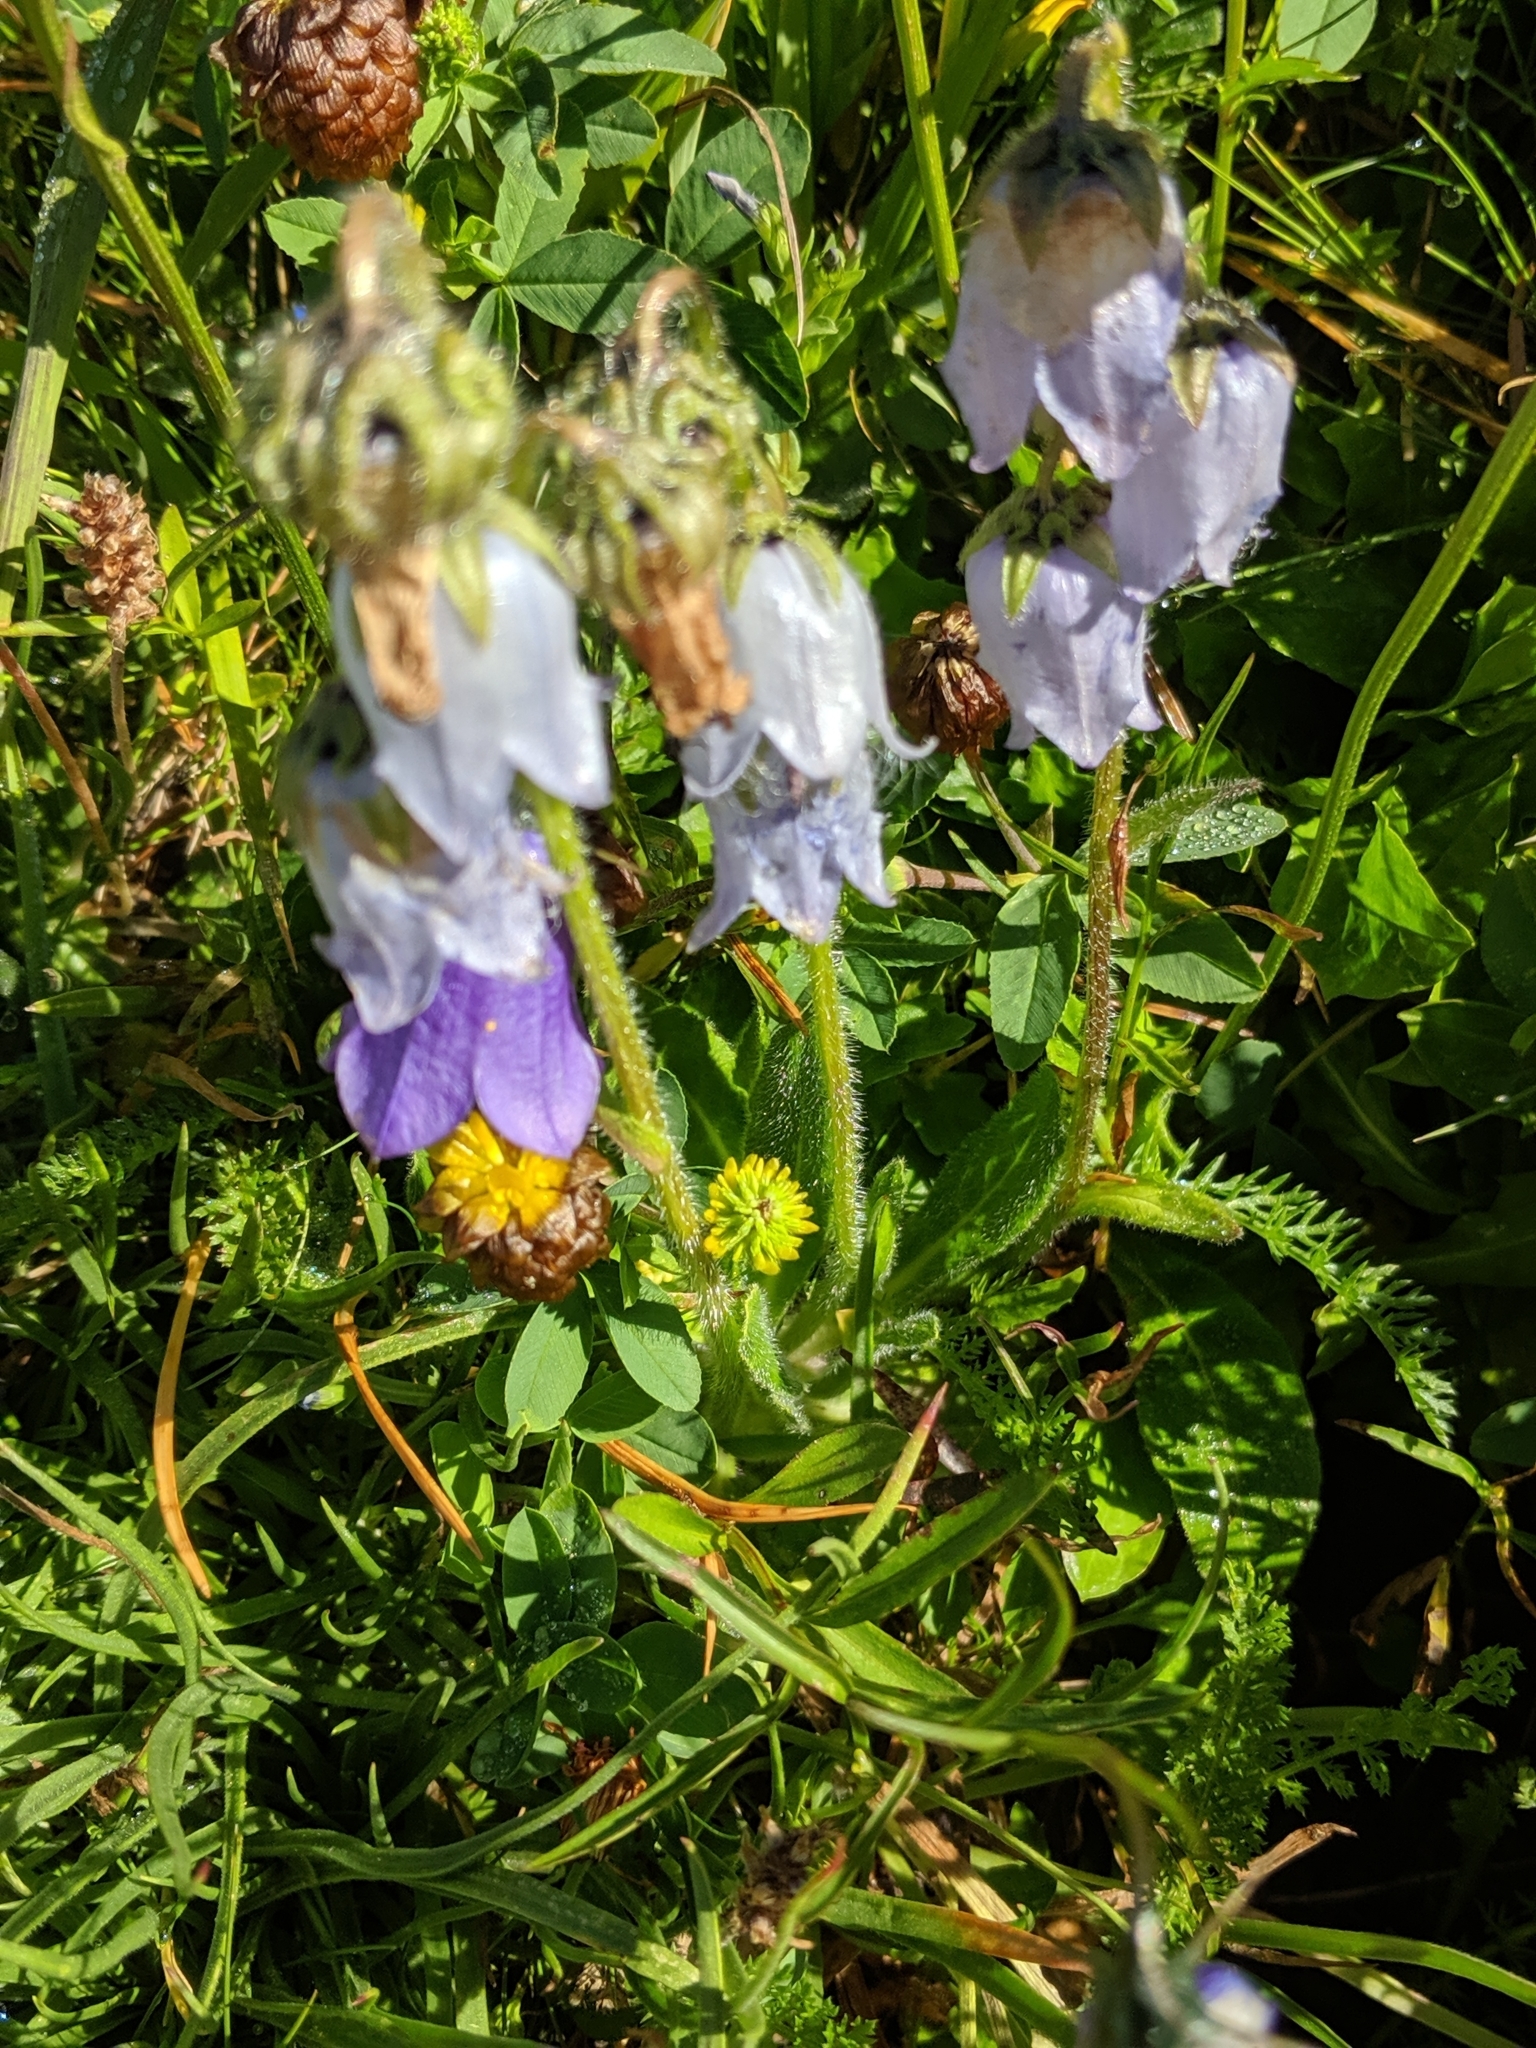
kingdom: Plantae
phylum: Tracheophyta
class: Magnoliopsida
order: Asterales
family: Campanulaceae
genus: Campanula
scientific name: Campanula barbata
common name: Bearded bellflower
